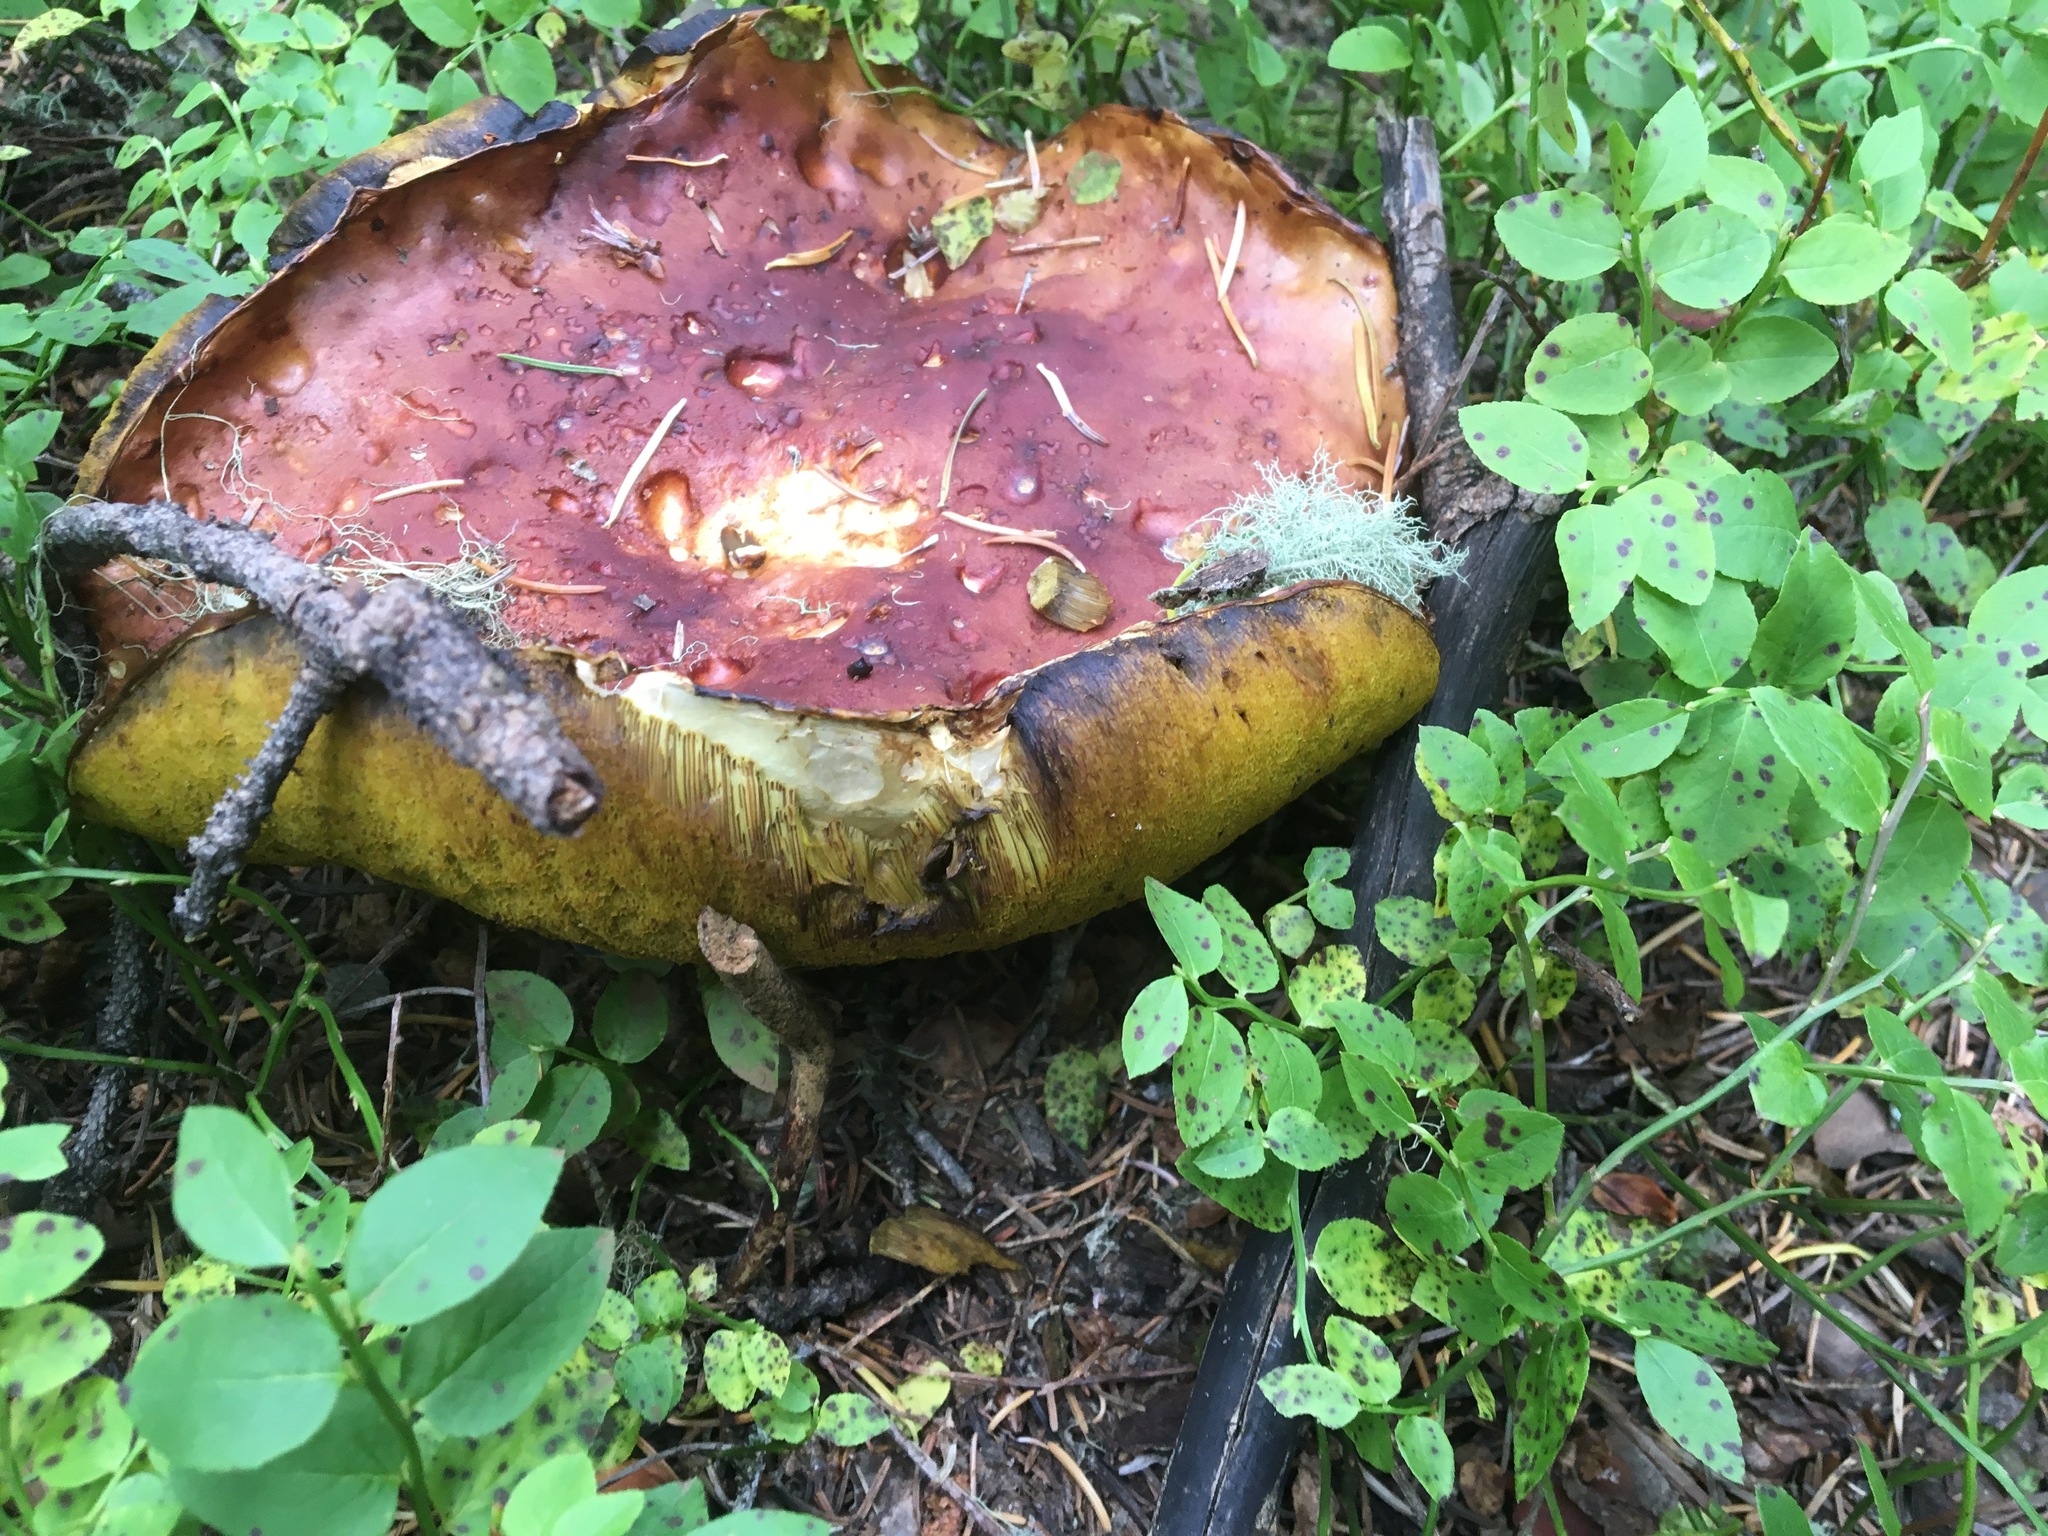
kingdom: Fungi
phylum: Basidiomycota
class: Agaricomycetes
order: Boletales
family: Boletaceae
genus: Boletus
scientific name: Boletus rubriceps
